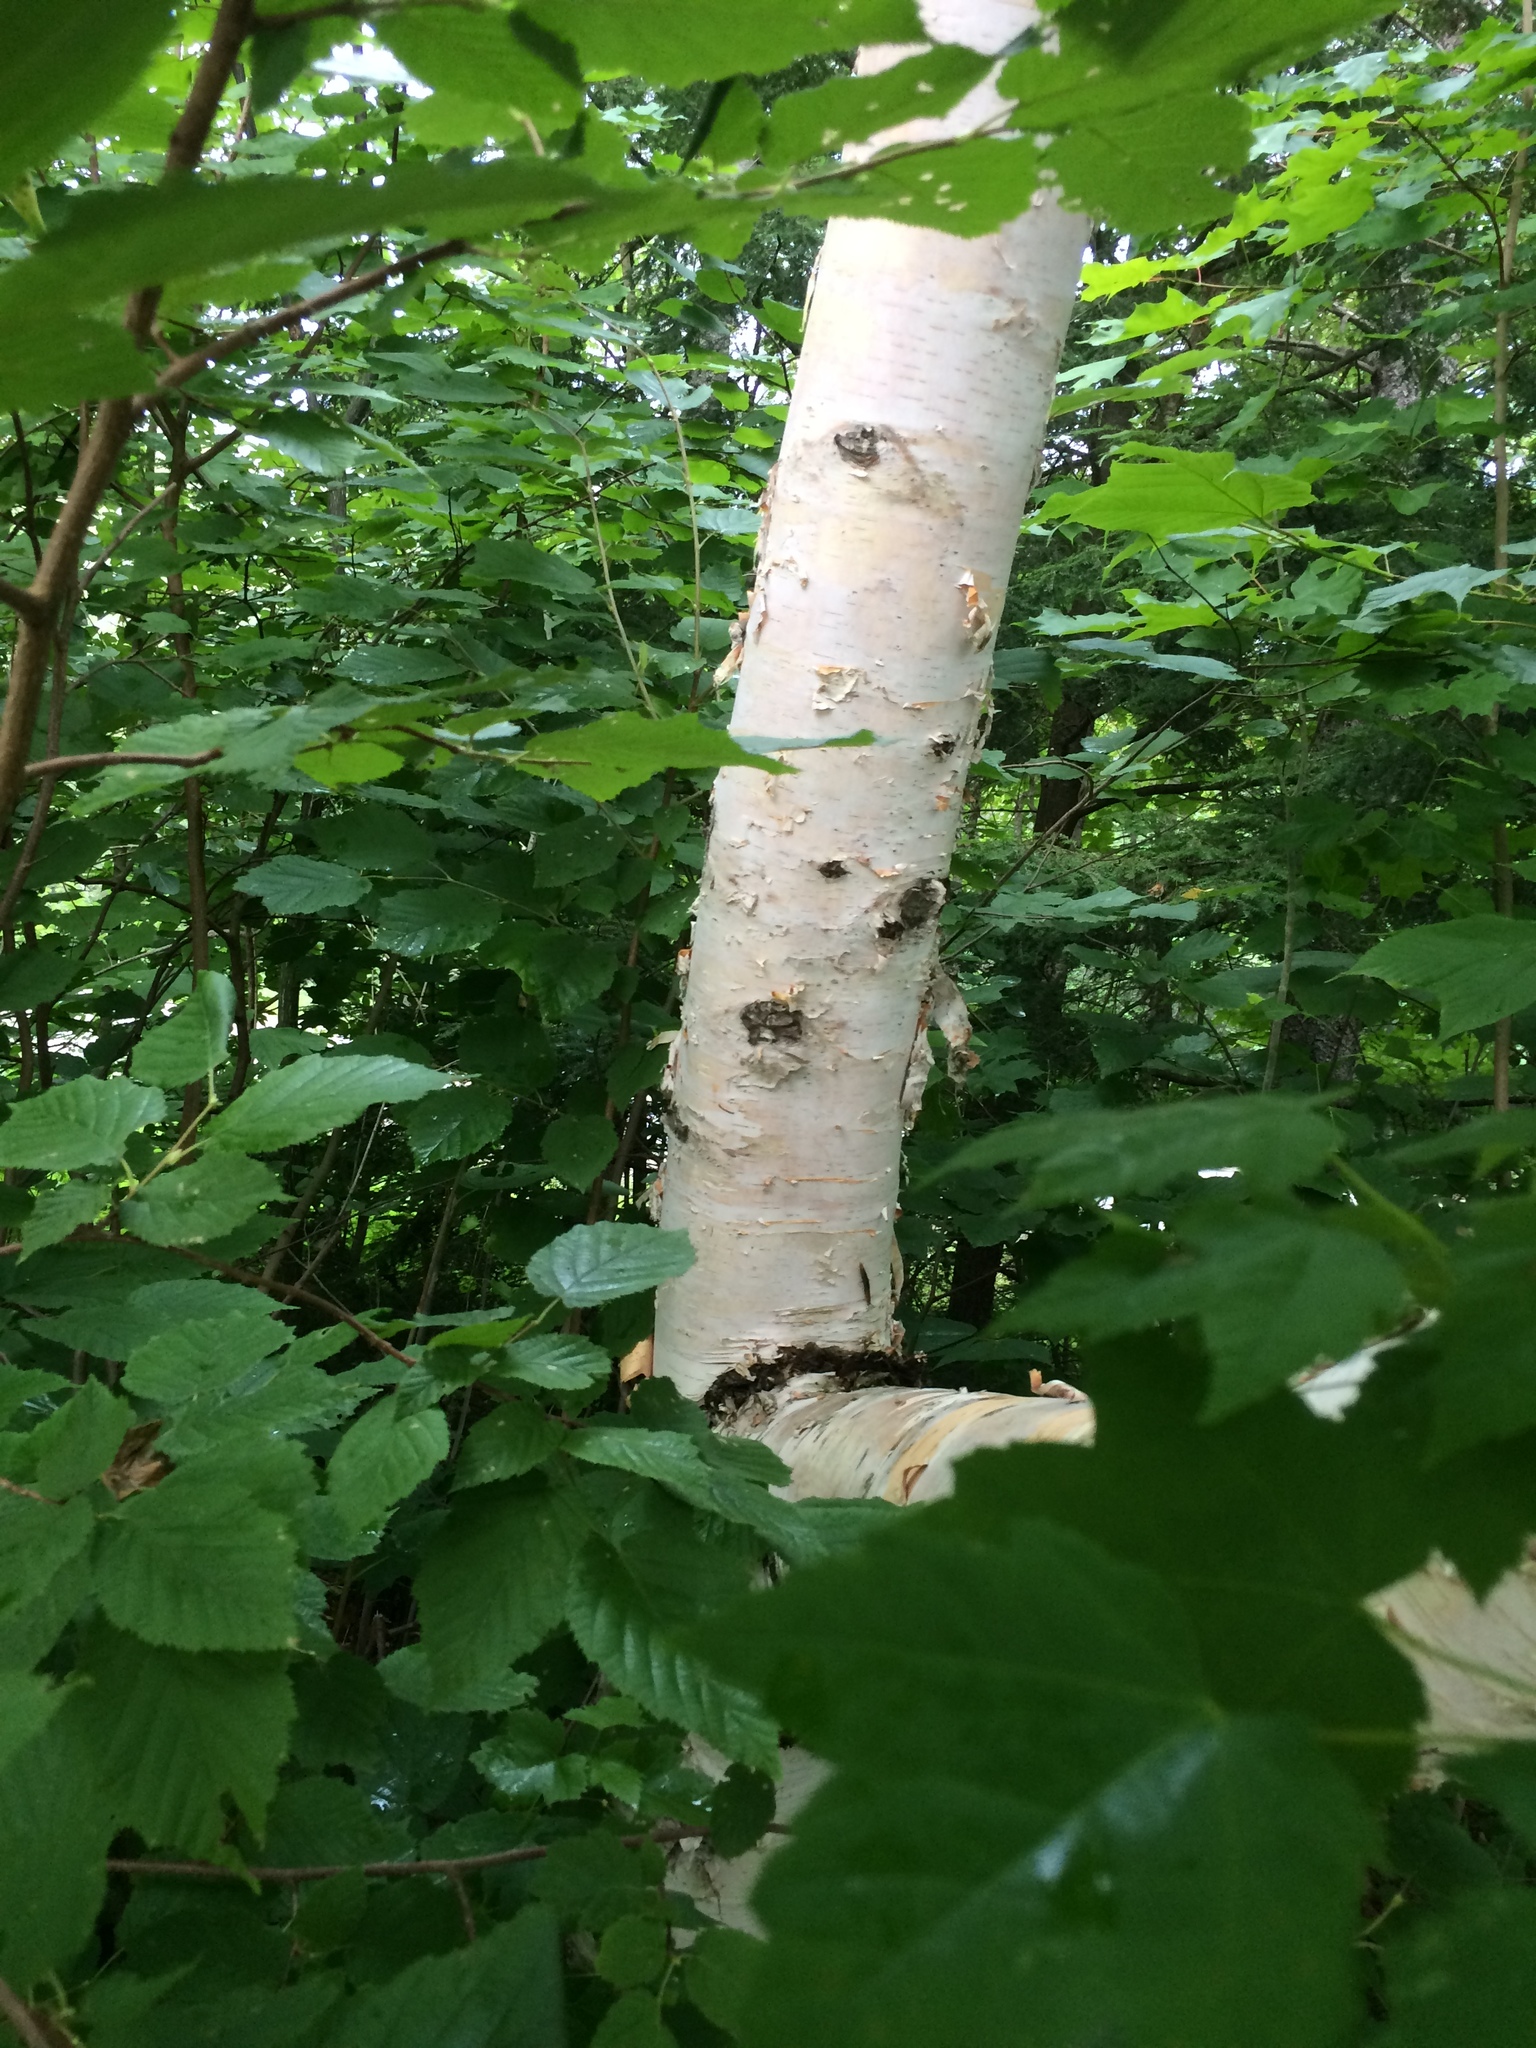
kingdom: Plantae
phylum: Tracheophyta
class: Magnoliopsida
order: Fagales
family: Betulaceae
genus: Betula
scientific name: Betula cordifolia
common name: Mountain white birch
